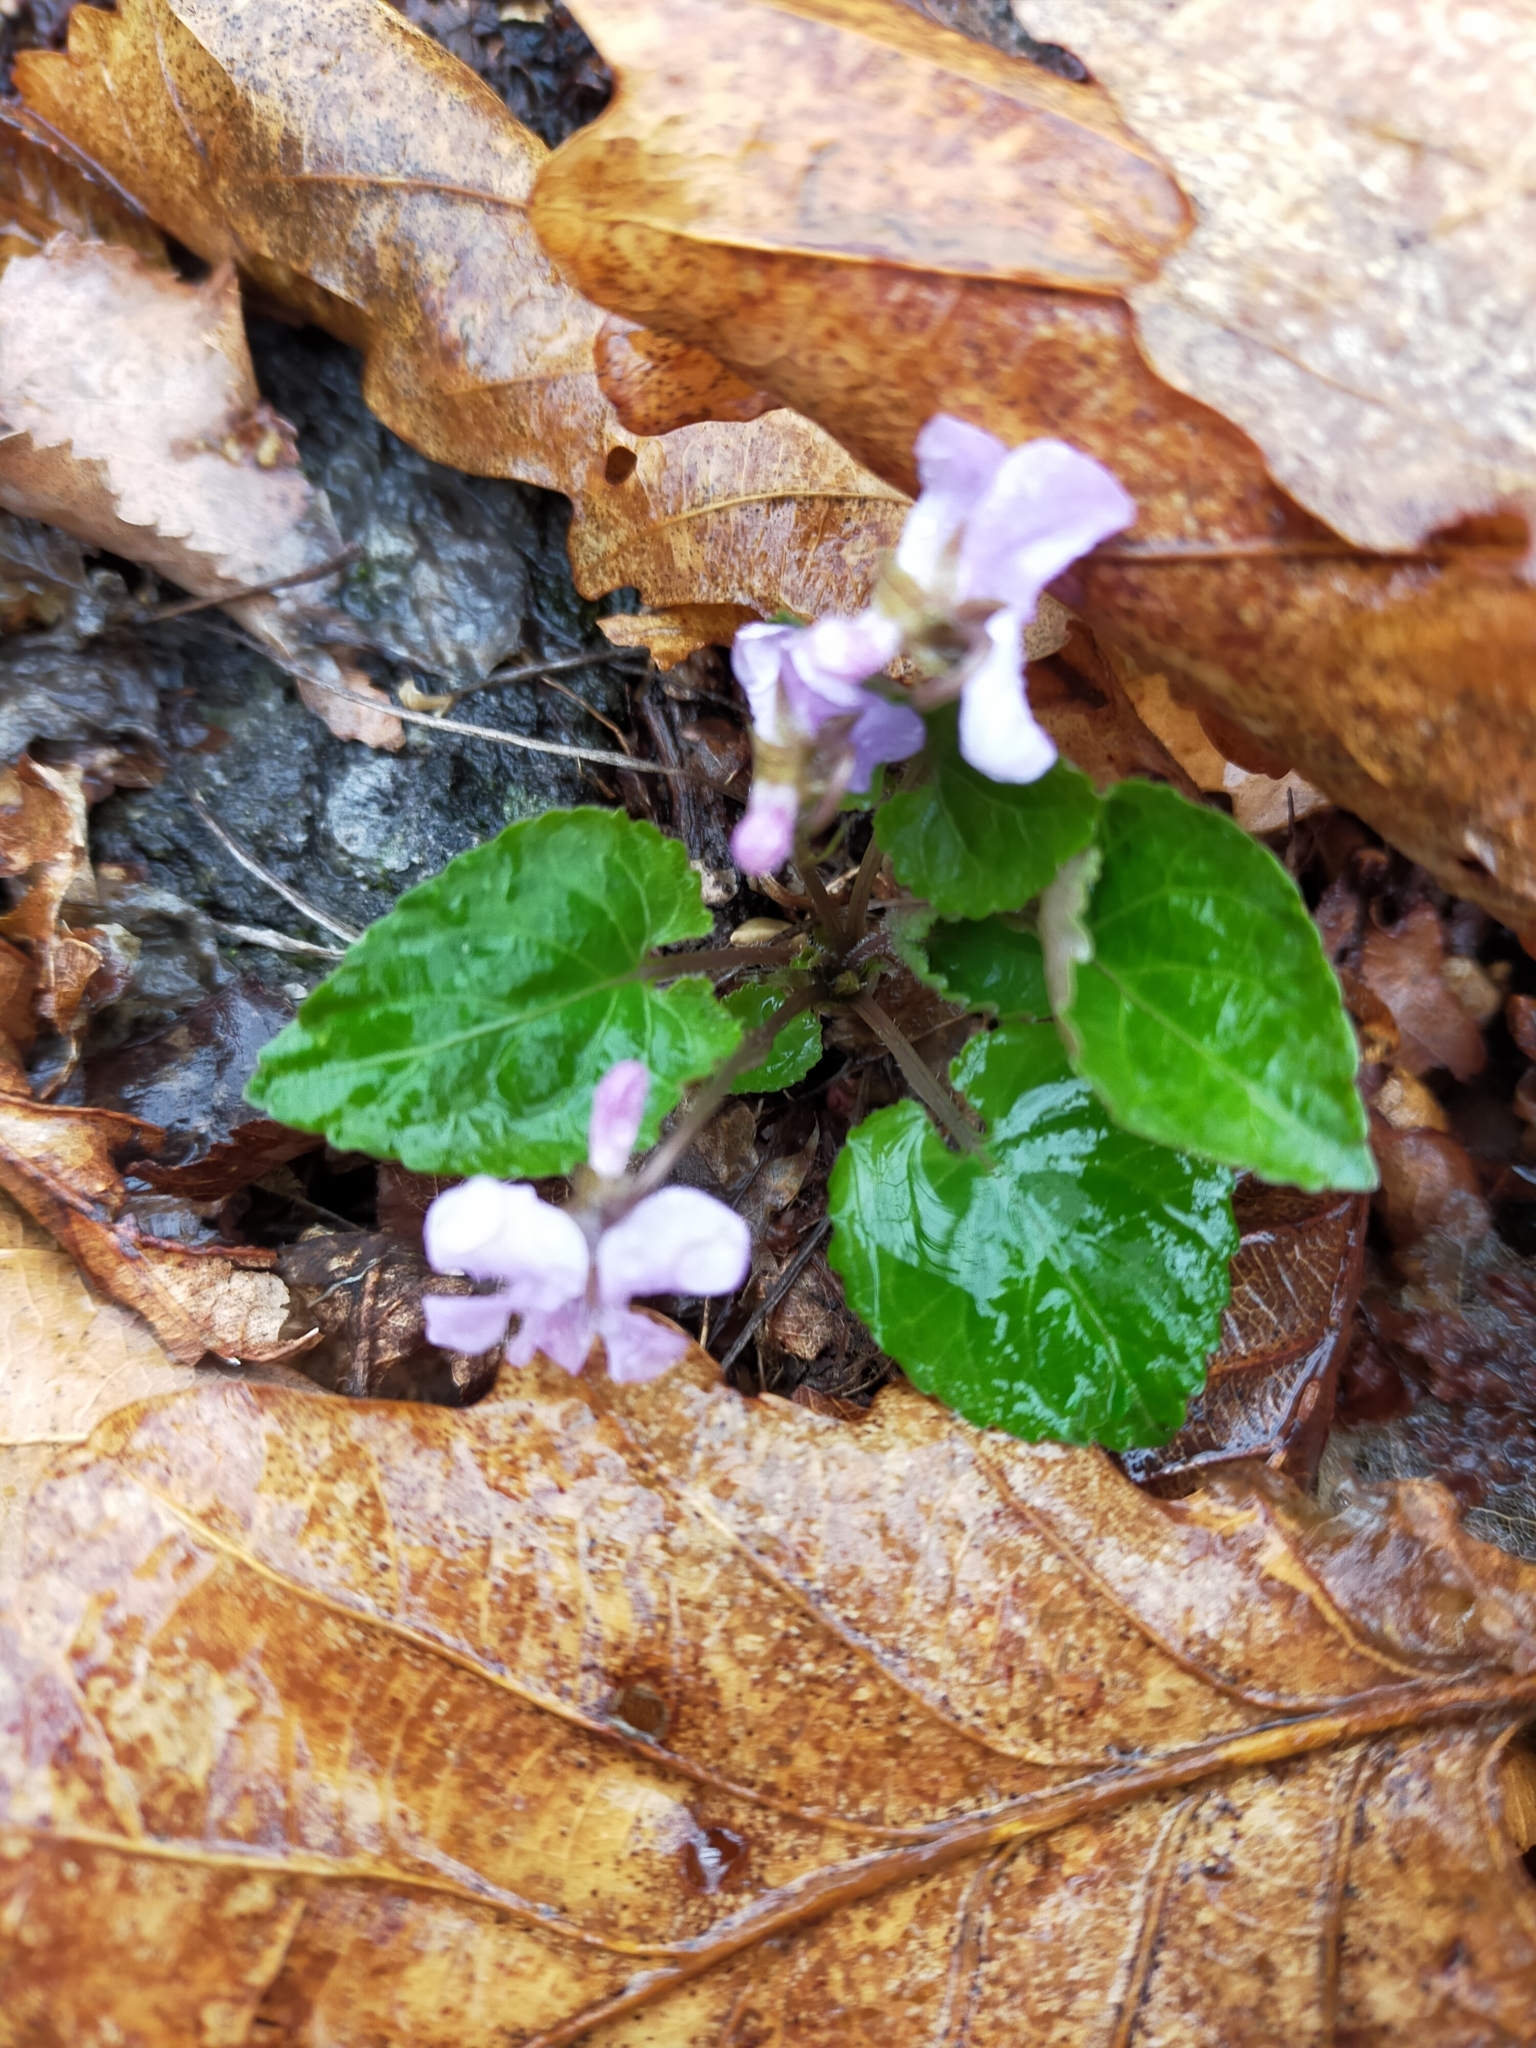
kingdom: Plantae
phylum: Tracheophyta
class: Magnoliopsida
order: Malpighiales
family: Violaceae
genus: Viola
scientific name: Viola selkirkii
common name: Selkirk's violet
